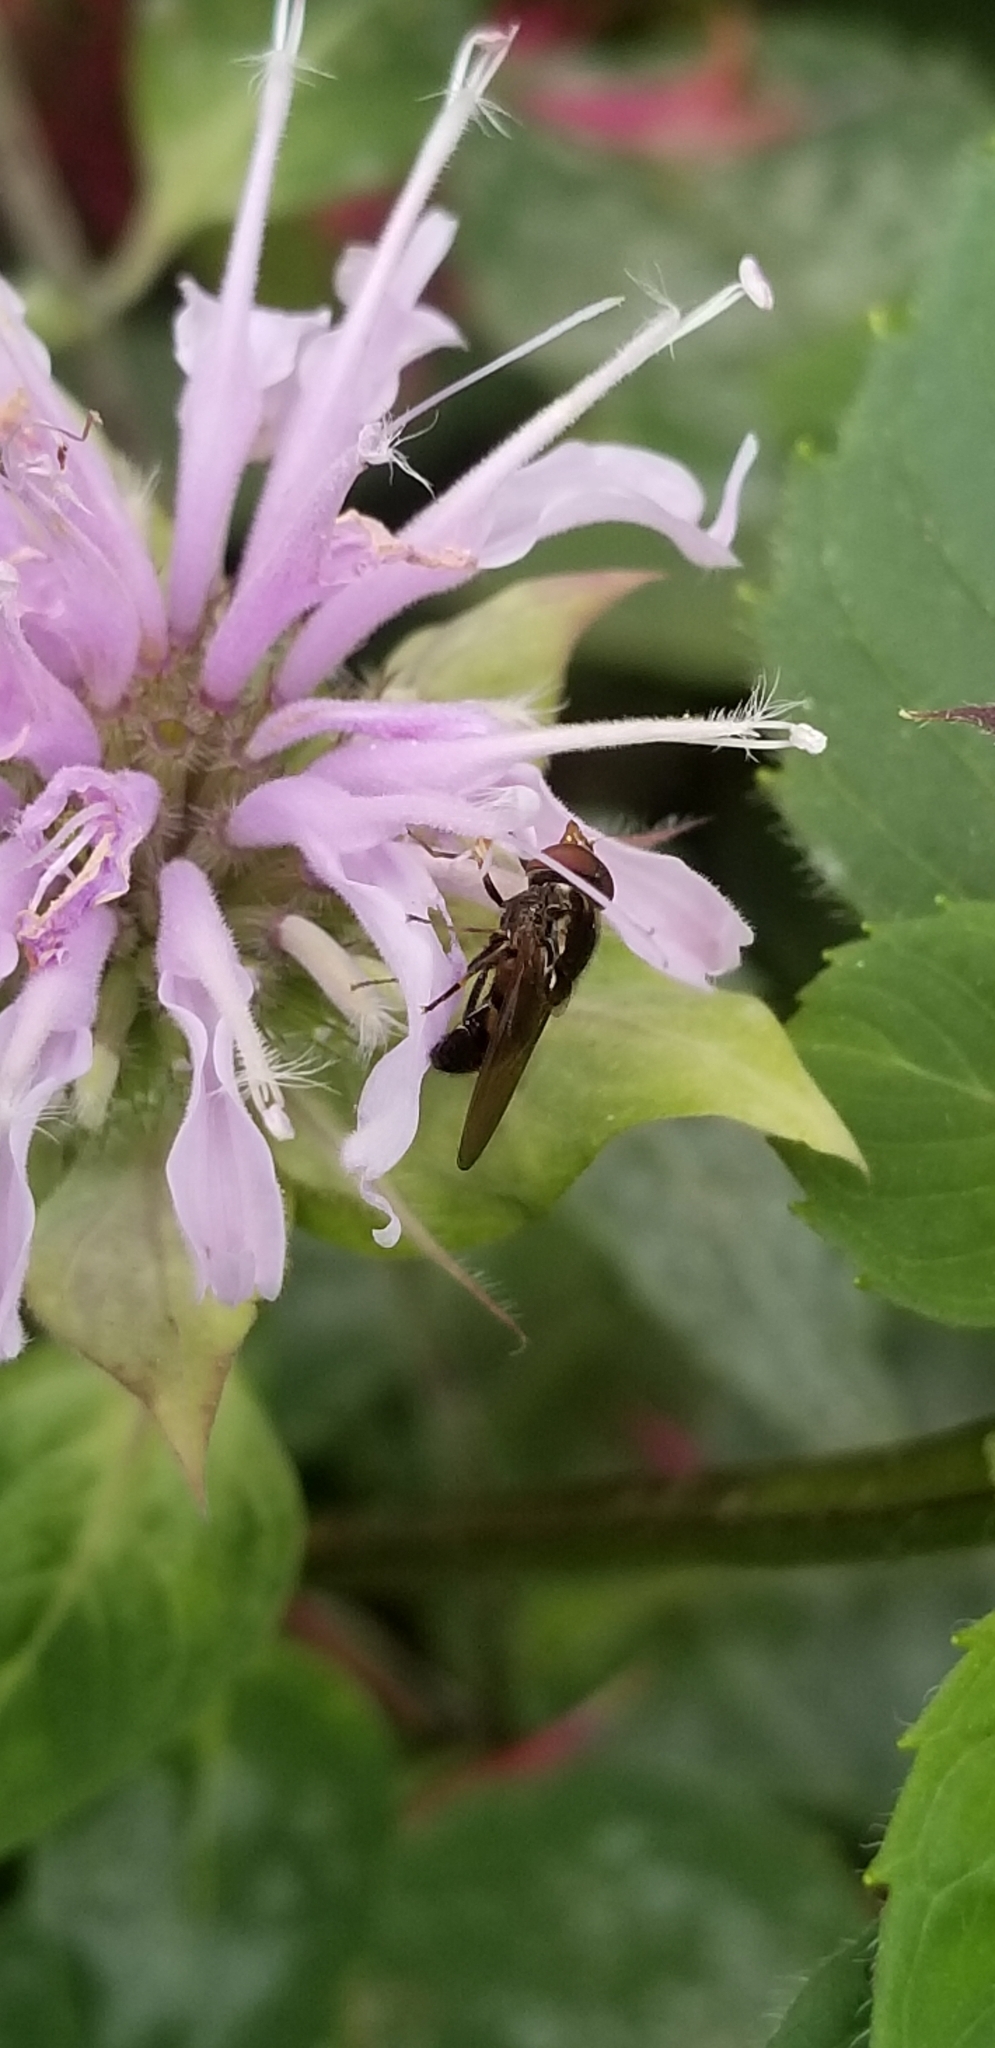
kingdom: Animalia
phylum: Arthropoda
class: Insecta
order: Diptera
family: Syrphidae
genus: Rhingia
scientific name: Rhingia nasica
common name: American snout fly
